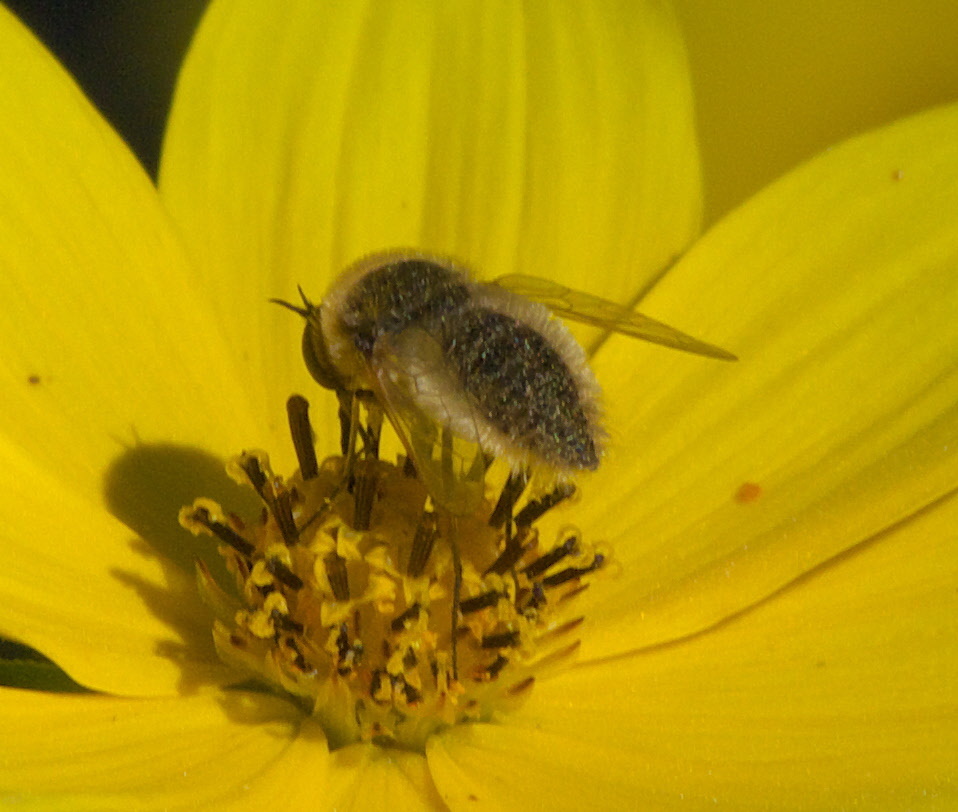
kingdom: Animalia
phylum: Arthropoda
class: Insecta
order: Diptera
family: Bombyliidae
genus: Sparnopolius
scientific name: Sparnopolius confusus
